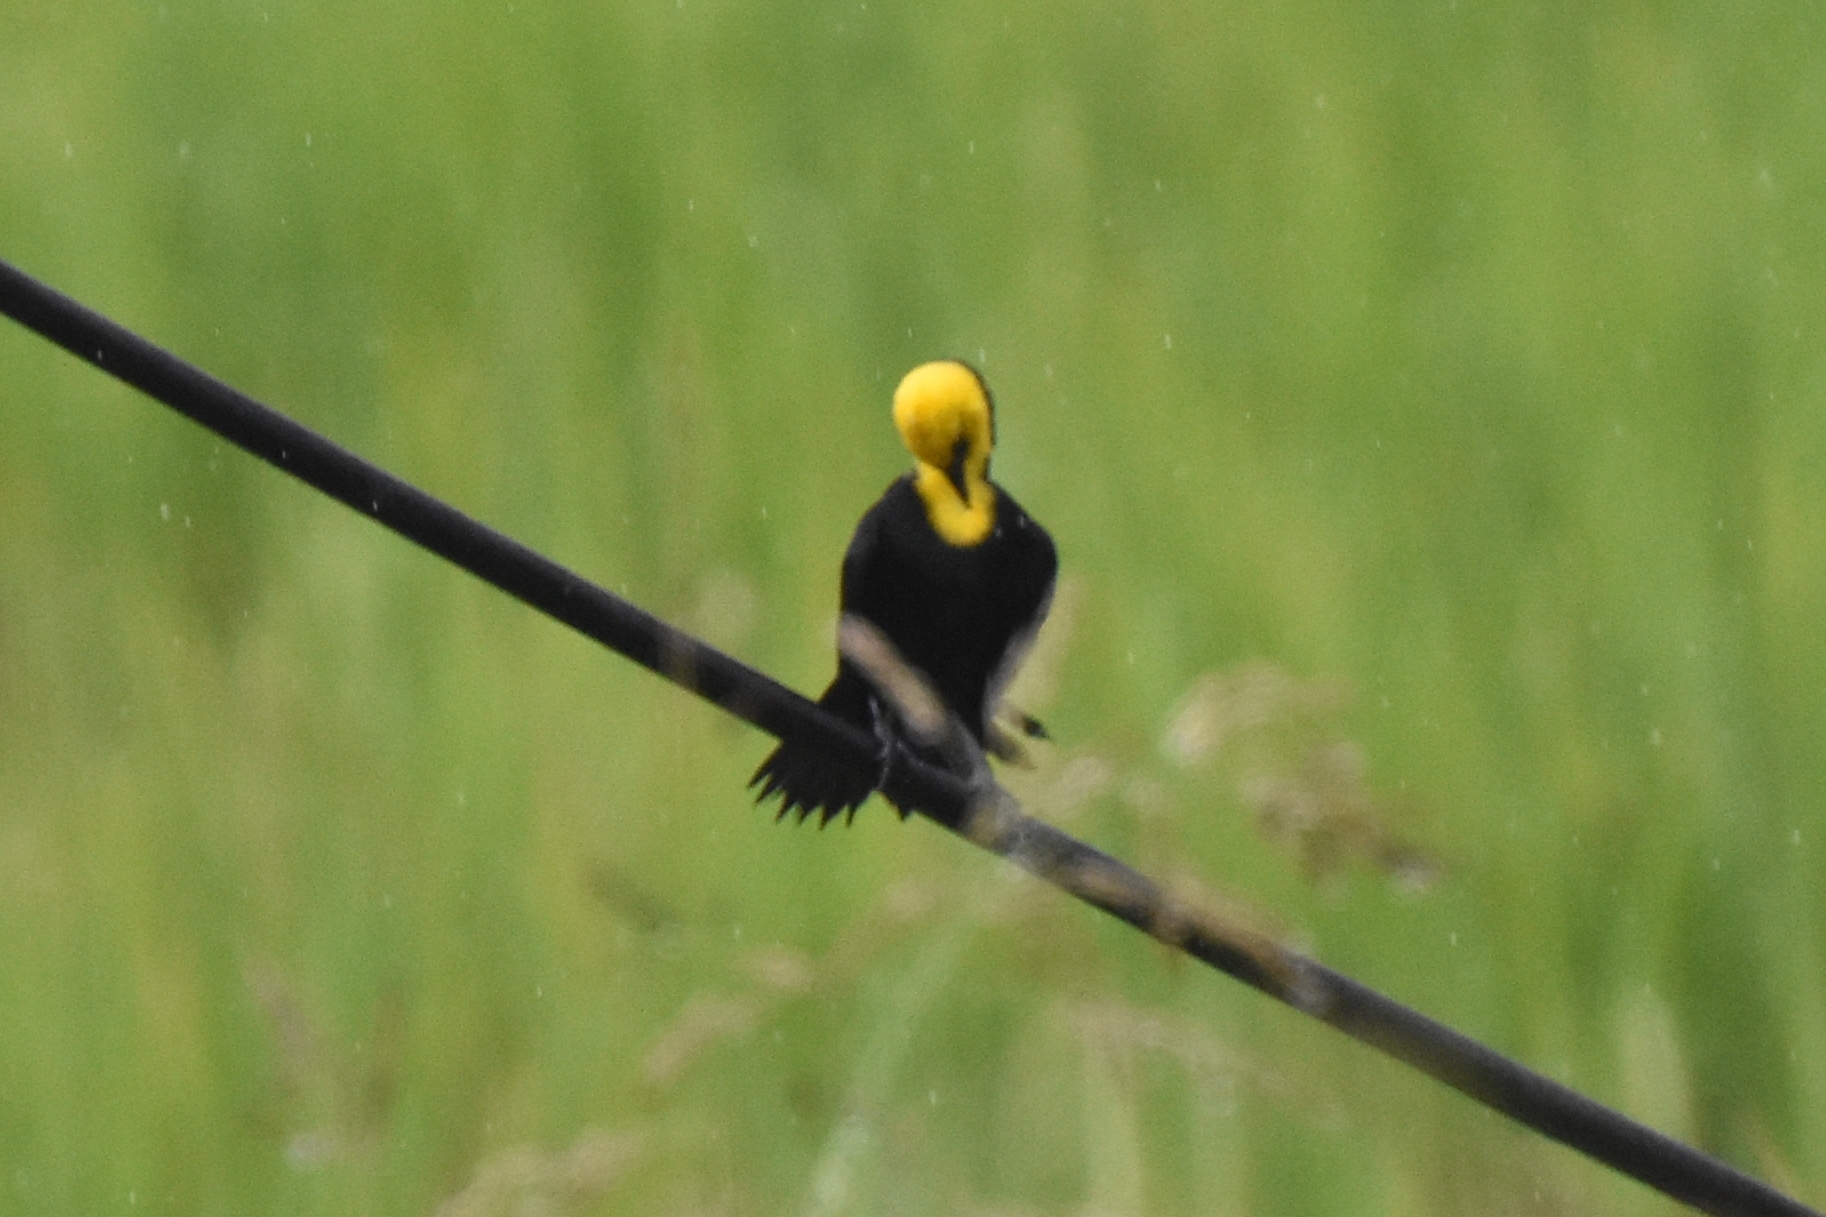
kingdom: Animalia
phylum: Chordata
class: Aves
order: Passeriformes
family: Icteridae
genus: Chrysomus
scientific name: Chrysomus icterocephalus
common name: Yellow-hooded blackbird
